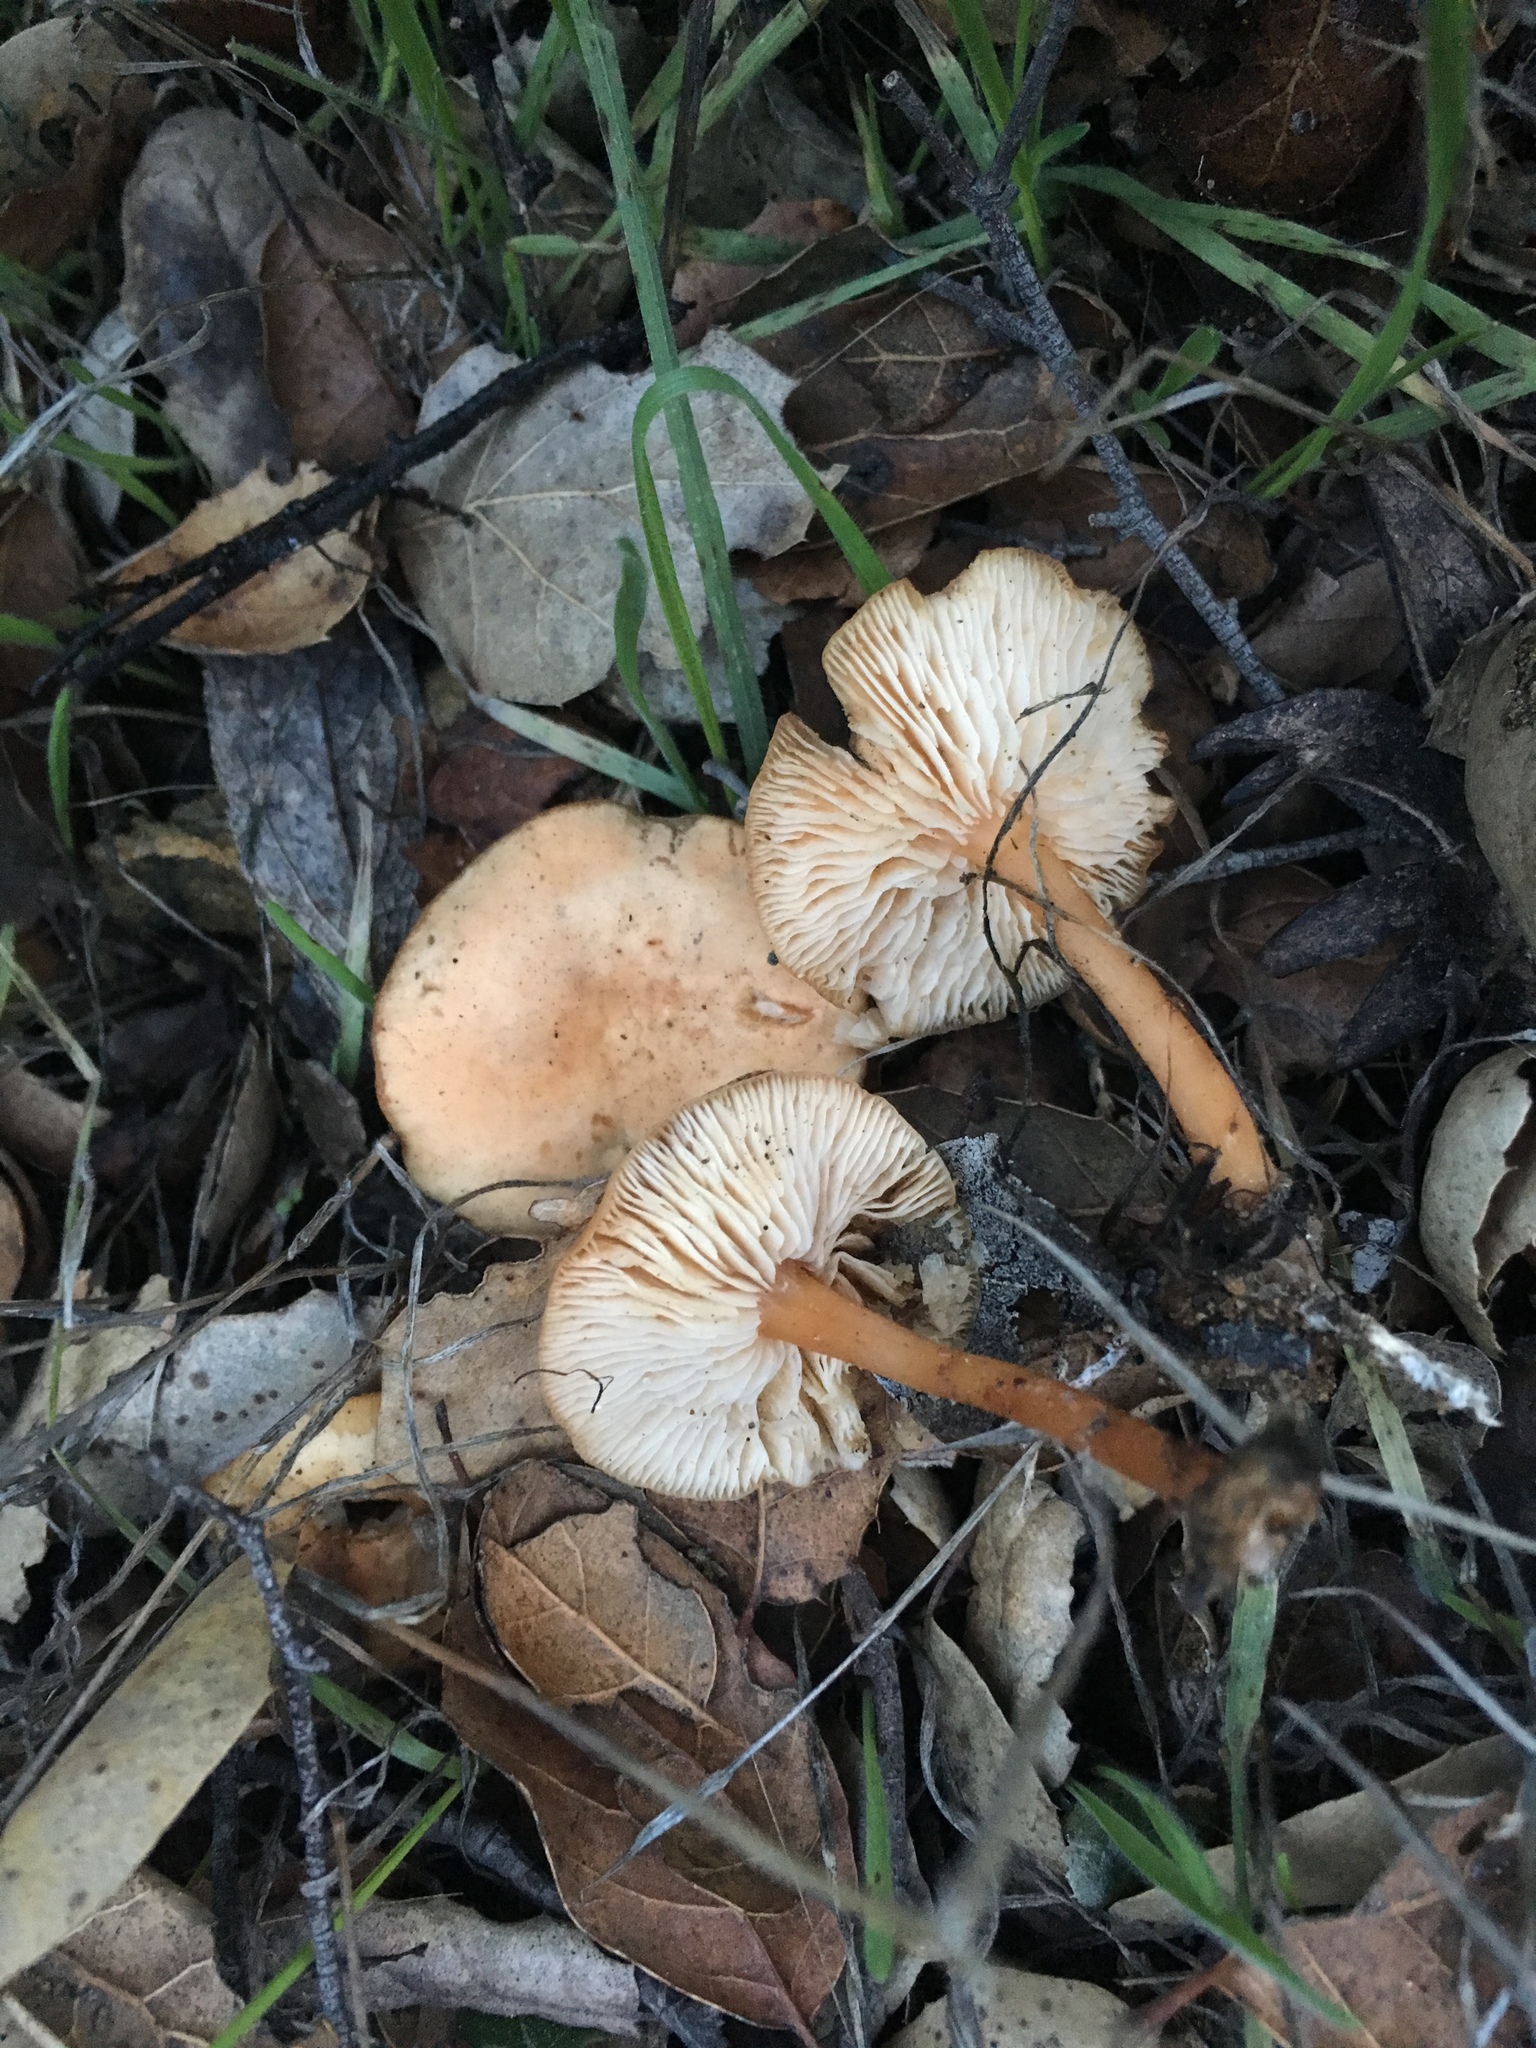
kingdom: Fungi
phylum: Basidiomycota
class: Agaricomycetes
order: Agaricales
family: Omphalotaceae
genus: Gymnopus
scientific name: Gymnopus dryophilus
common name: Penny top
